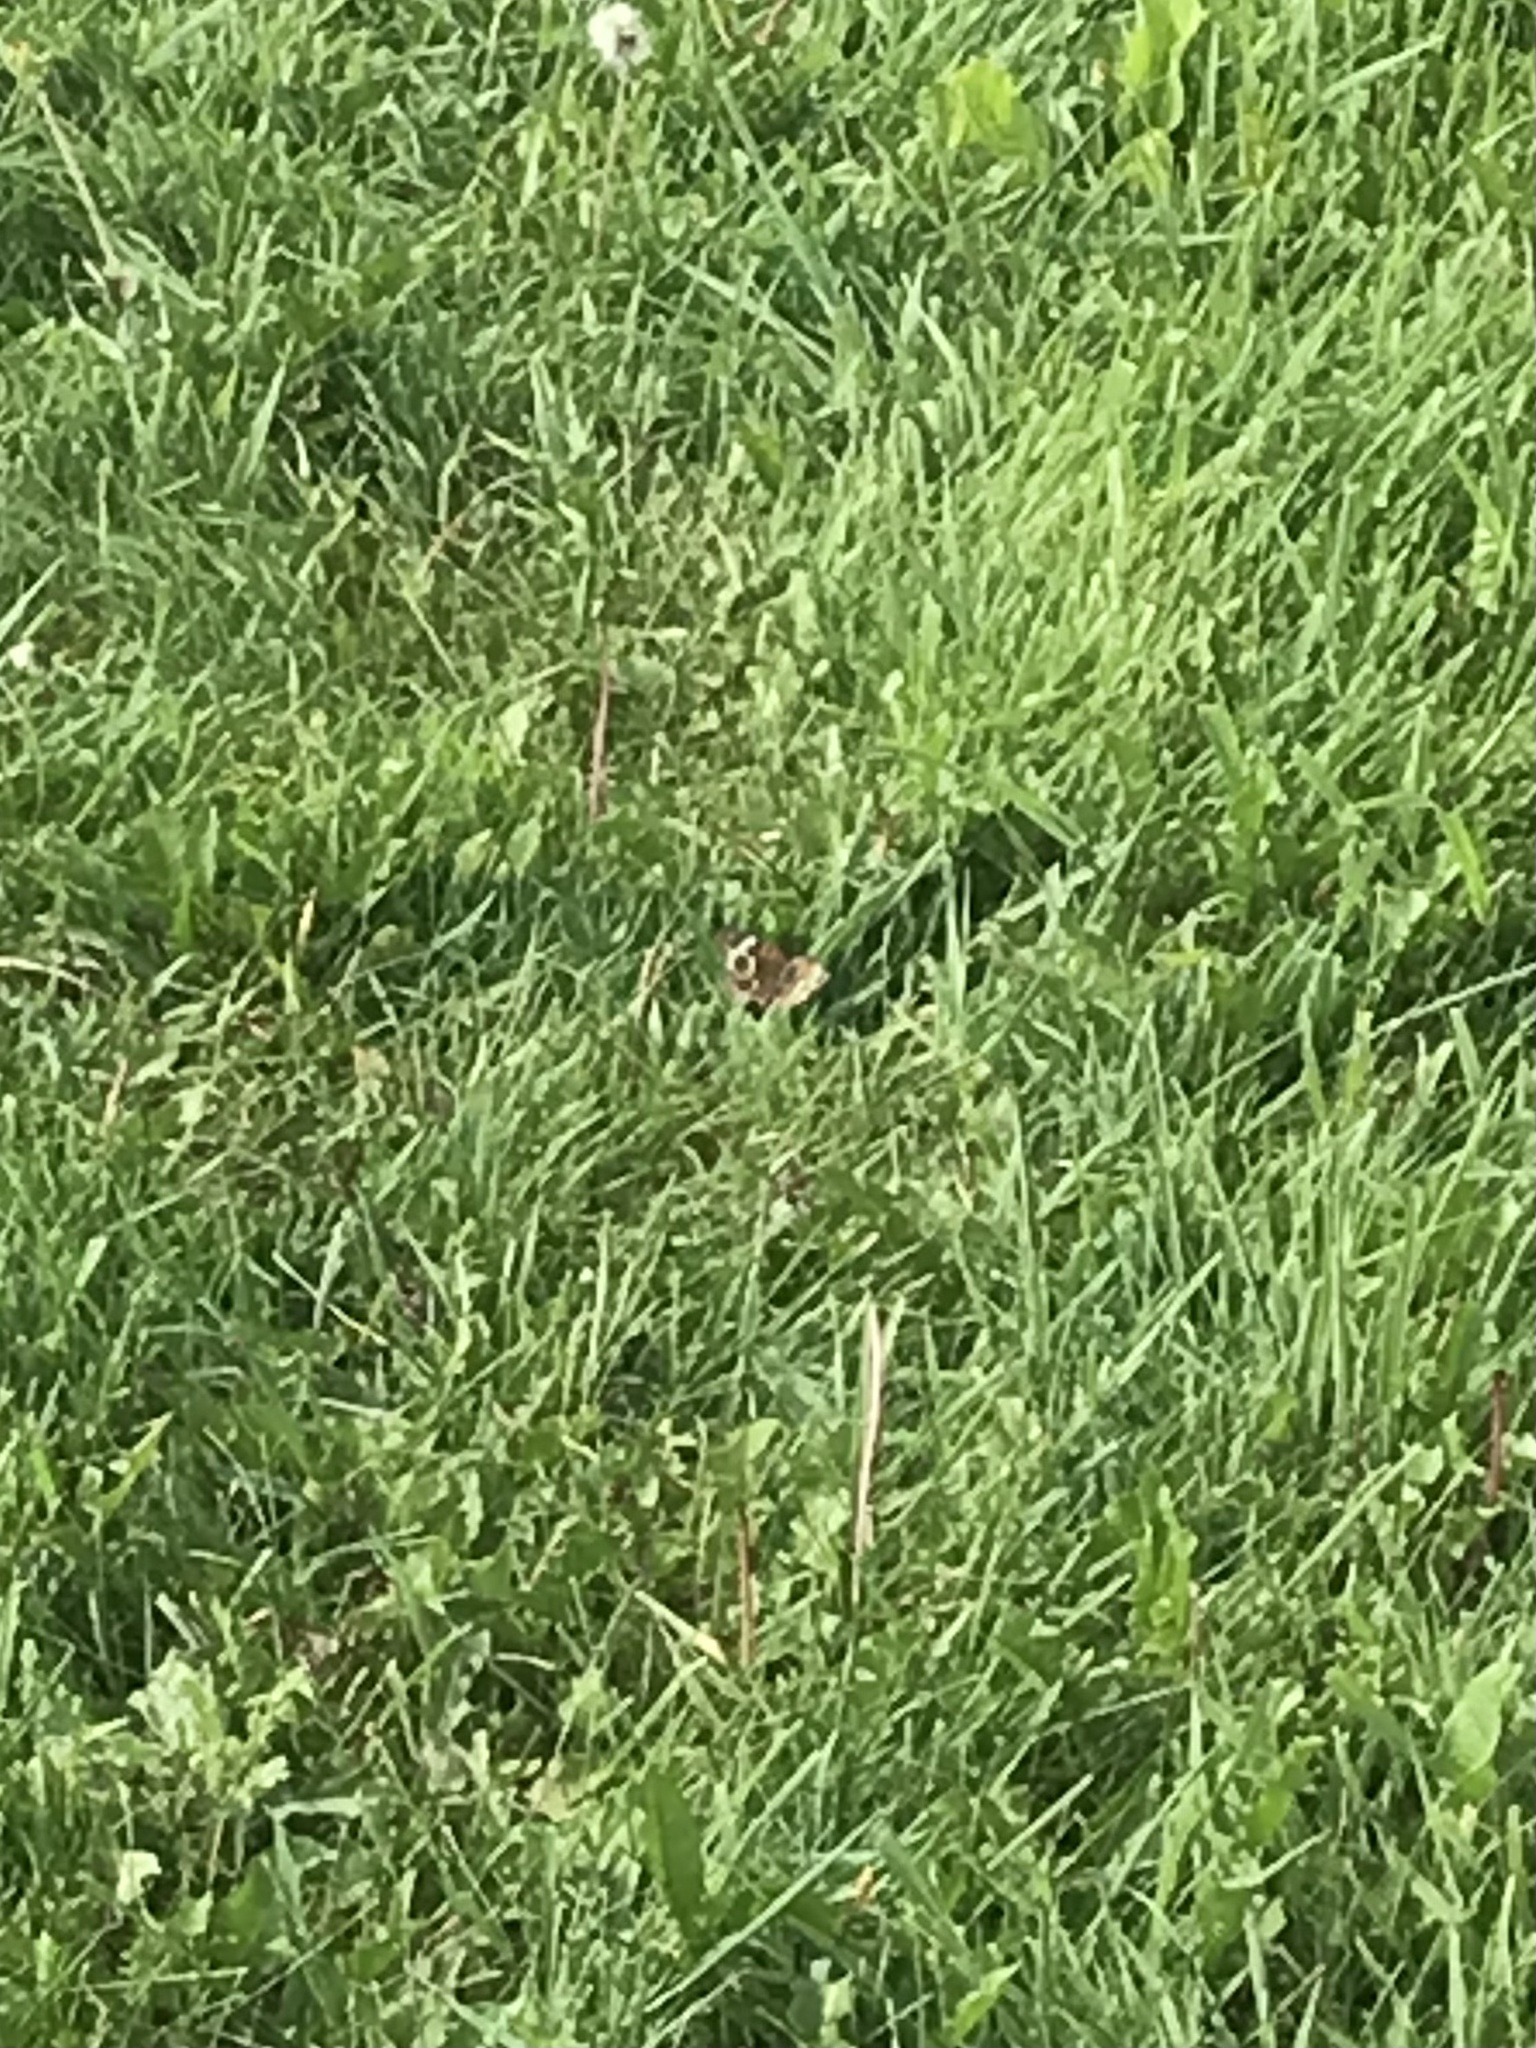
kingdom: Animalia
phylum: Arthropoda
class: Insecta
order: Lepidoptera
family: Nymphalidae
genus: Junonia
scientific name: Junonia coenia
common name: Common buckeye
